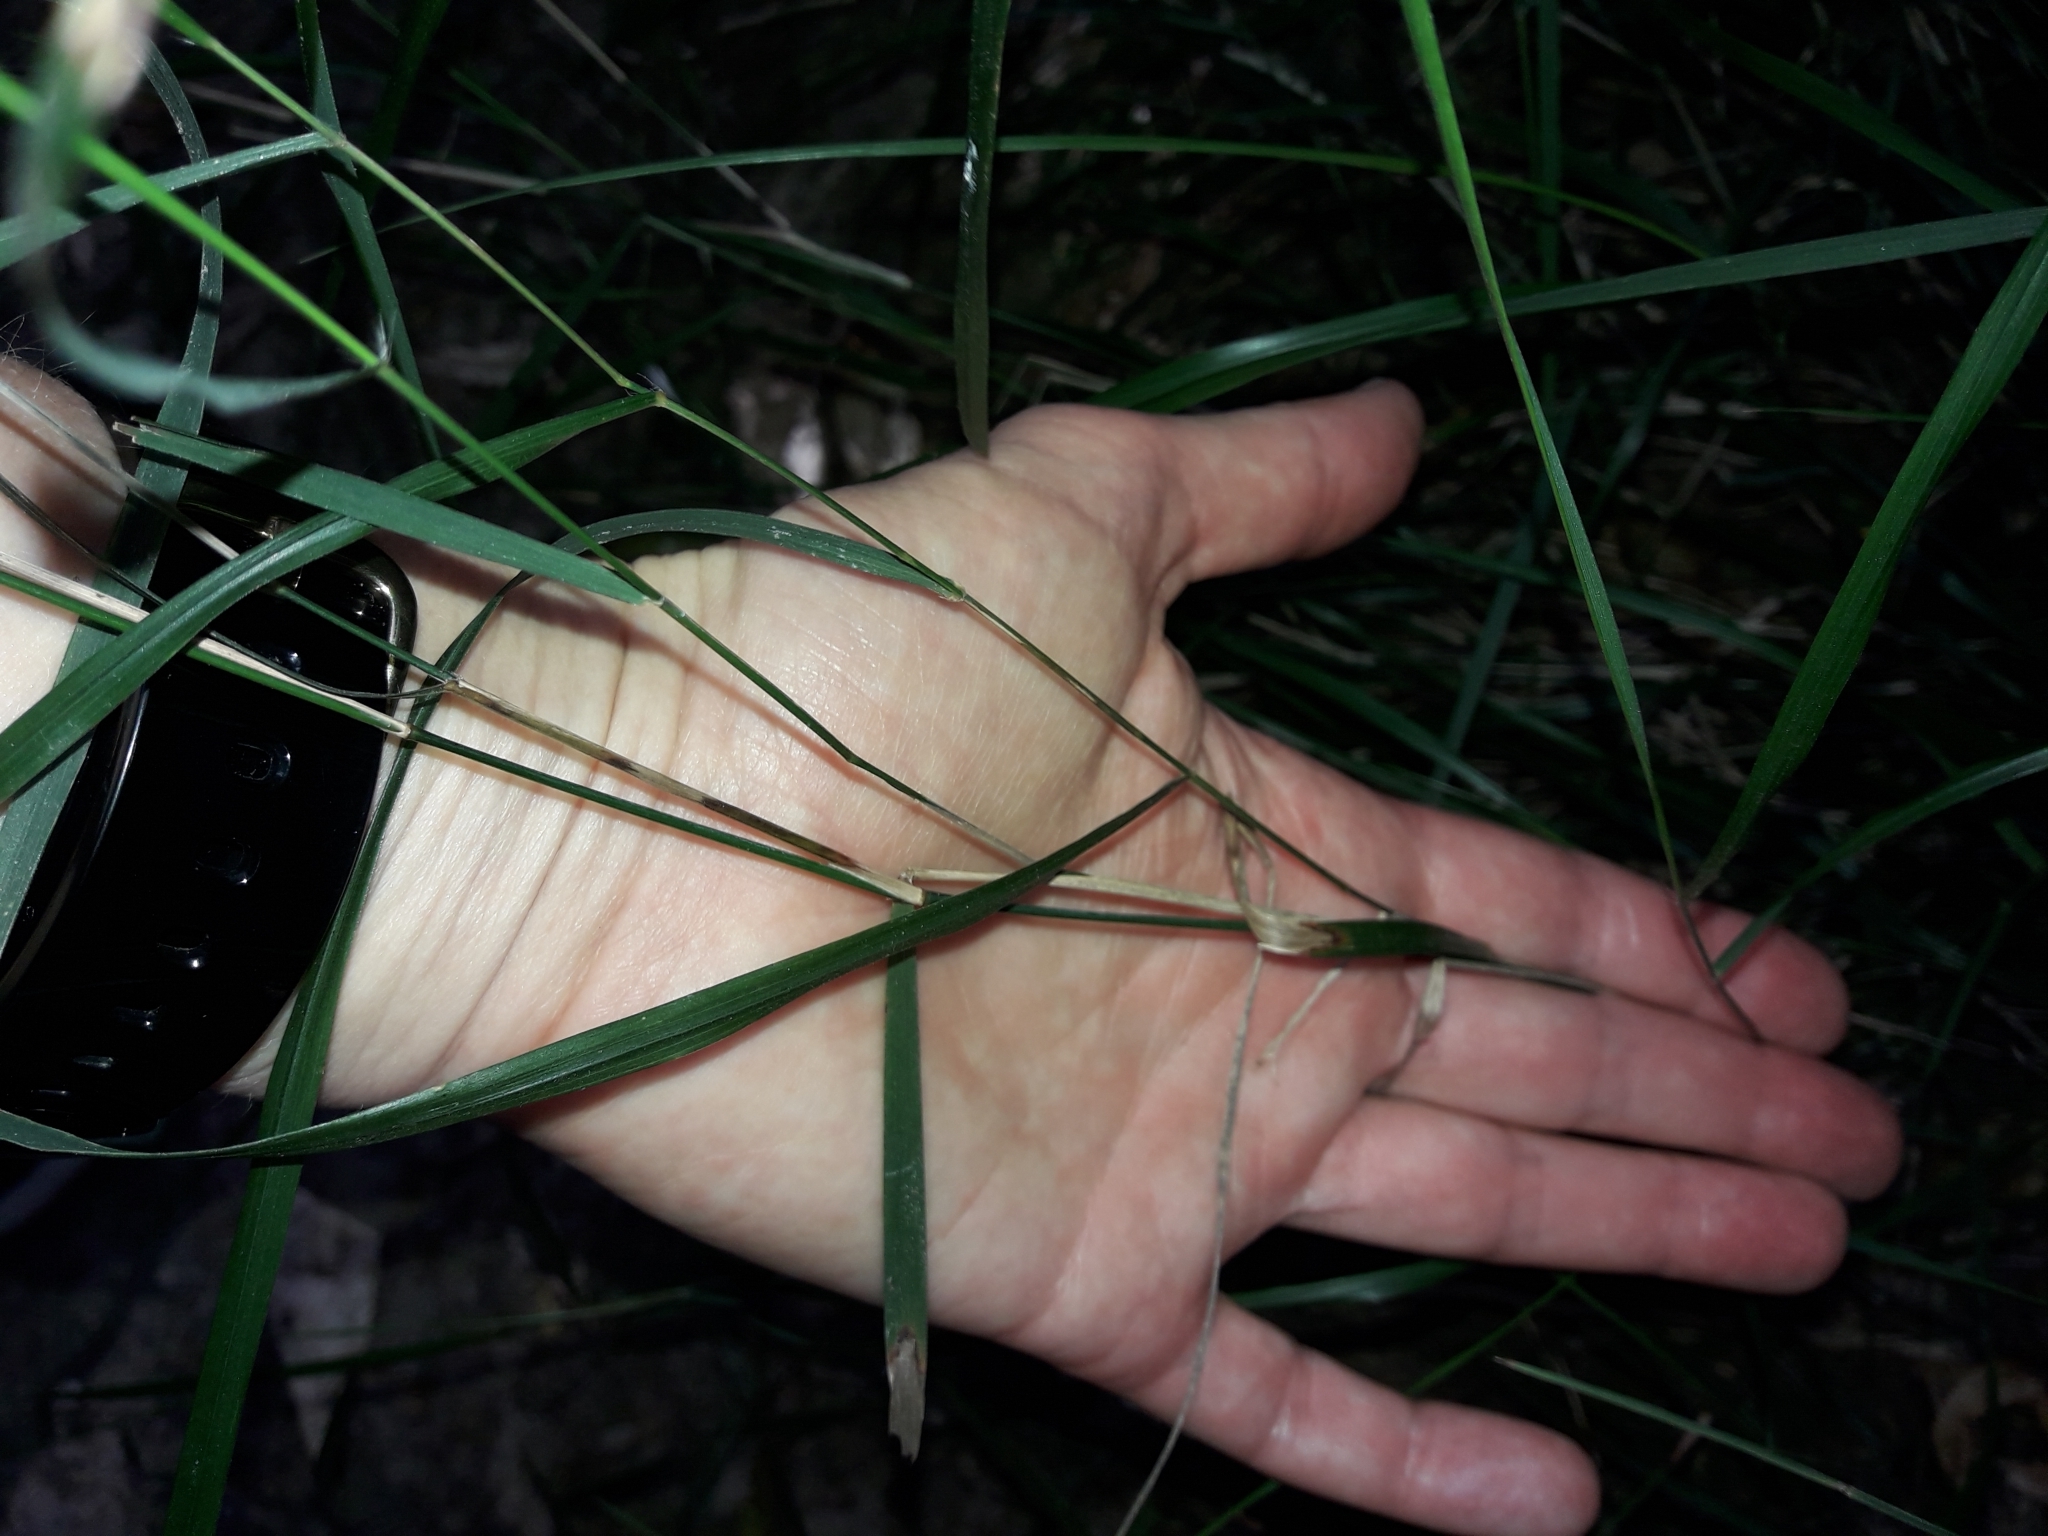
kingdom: Plantae
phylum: Tracheophyta
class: Liliopsida
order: Poales
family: Poaceae
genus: Microlaena
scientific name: Microlaena polynoda
